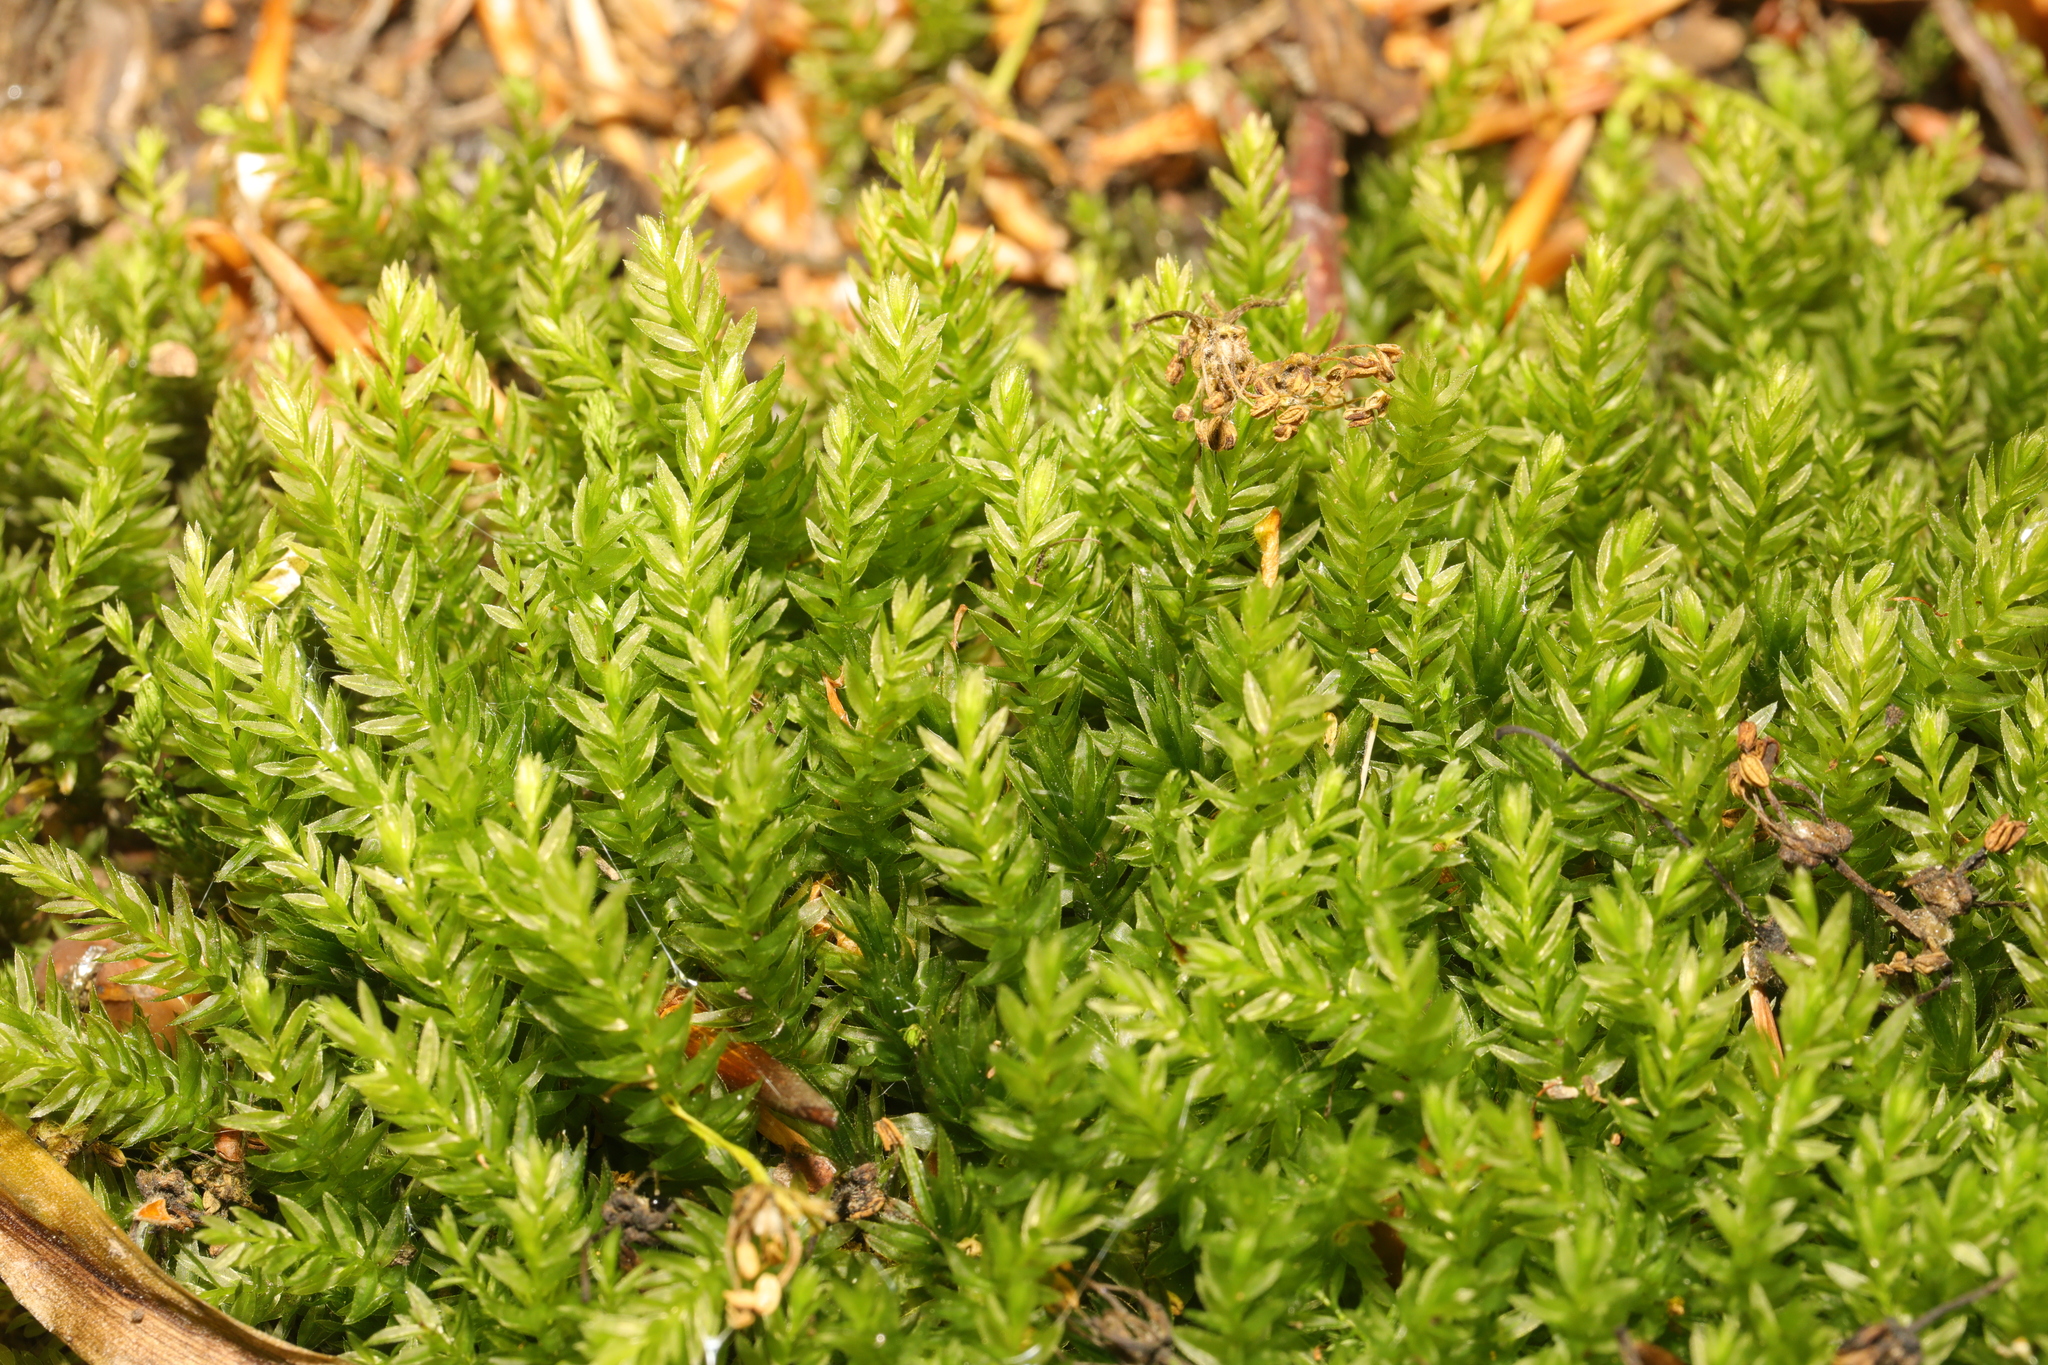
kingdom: Plantae
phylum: Bryophyta
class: Bryopsida
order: Bryales
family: Mniaceae
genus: Mnium
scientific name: Mnium hornum
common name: Swan's-neck leafy moss
